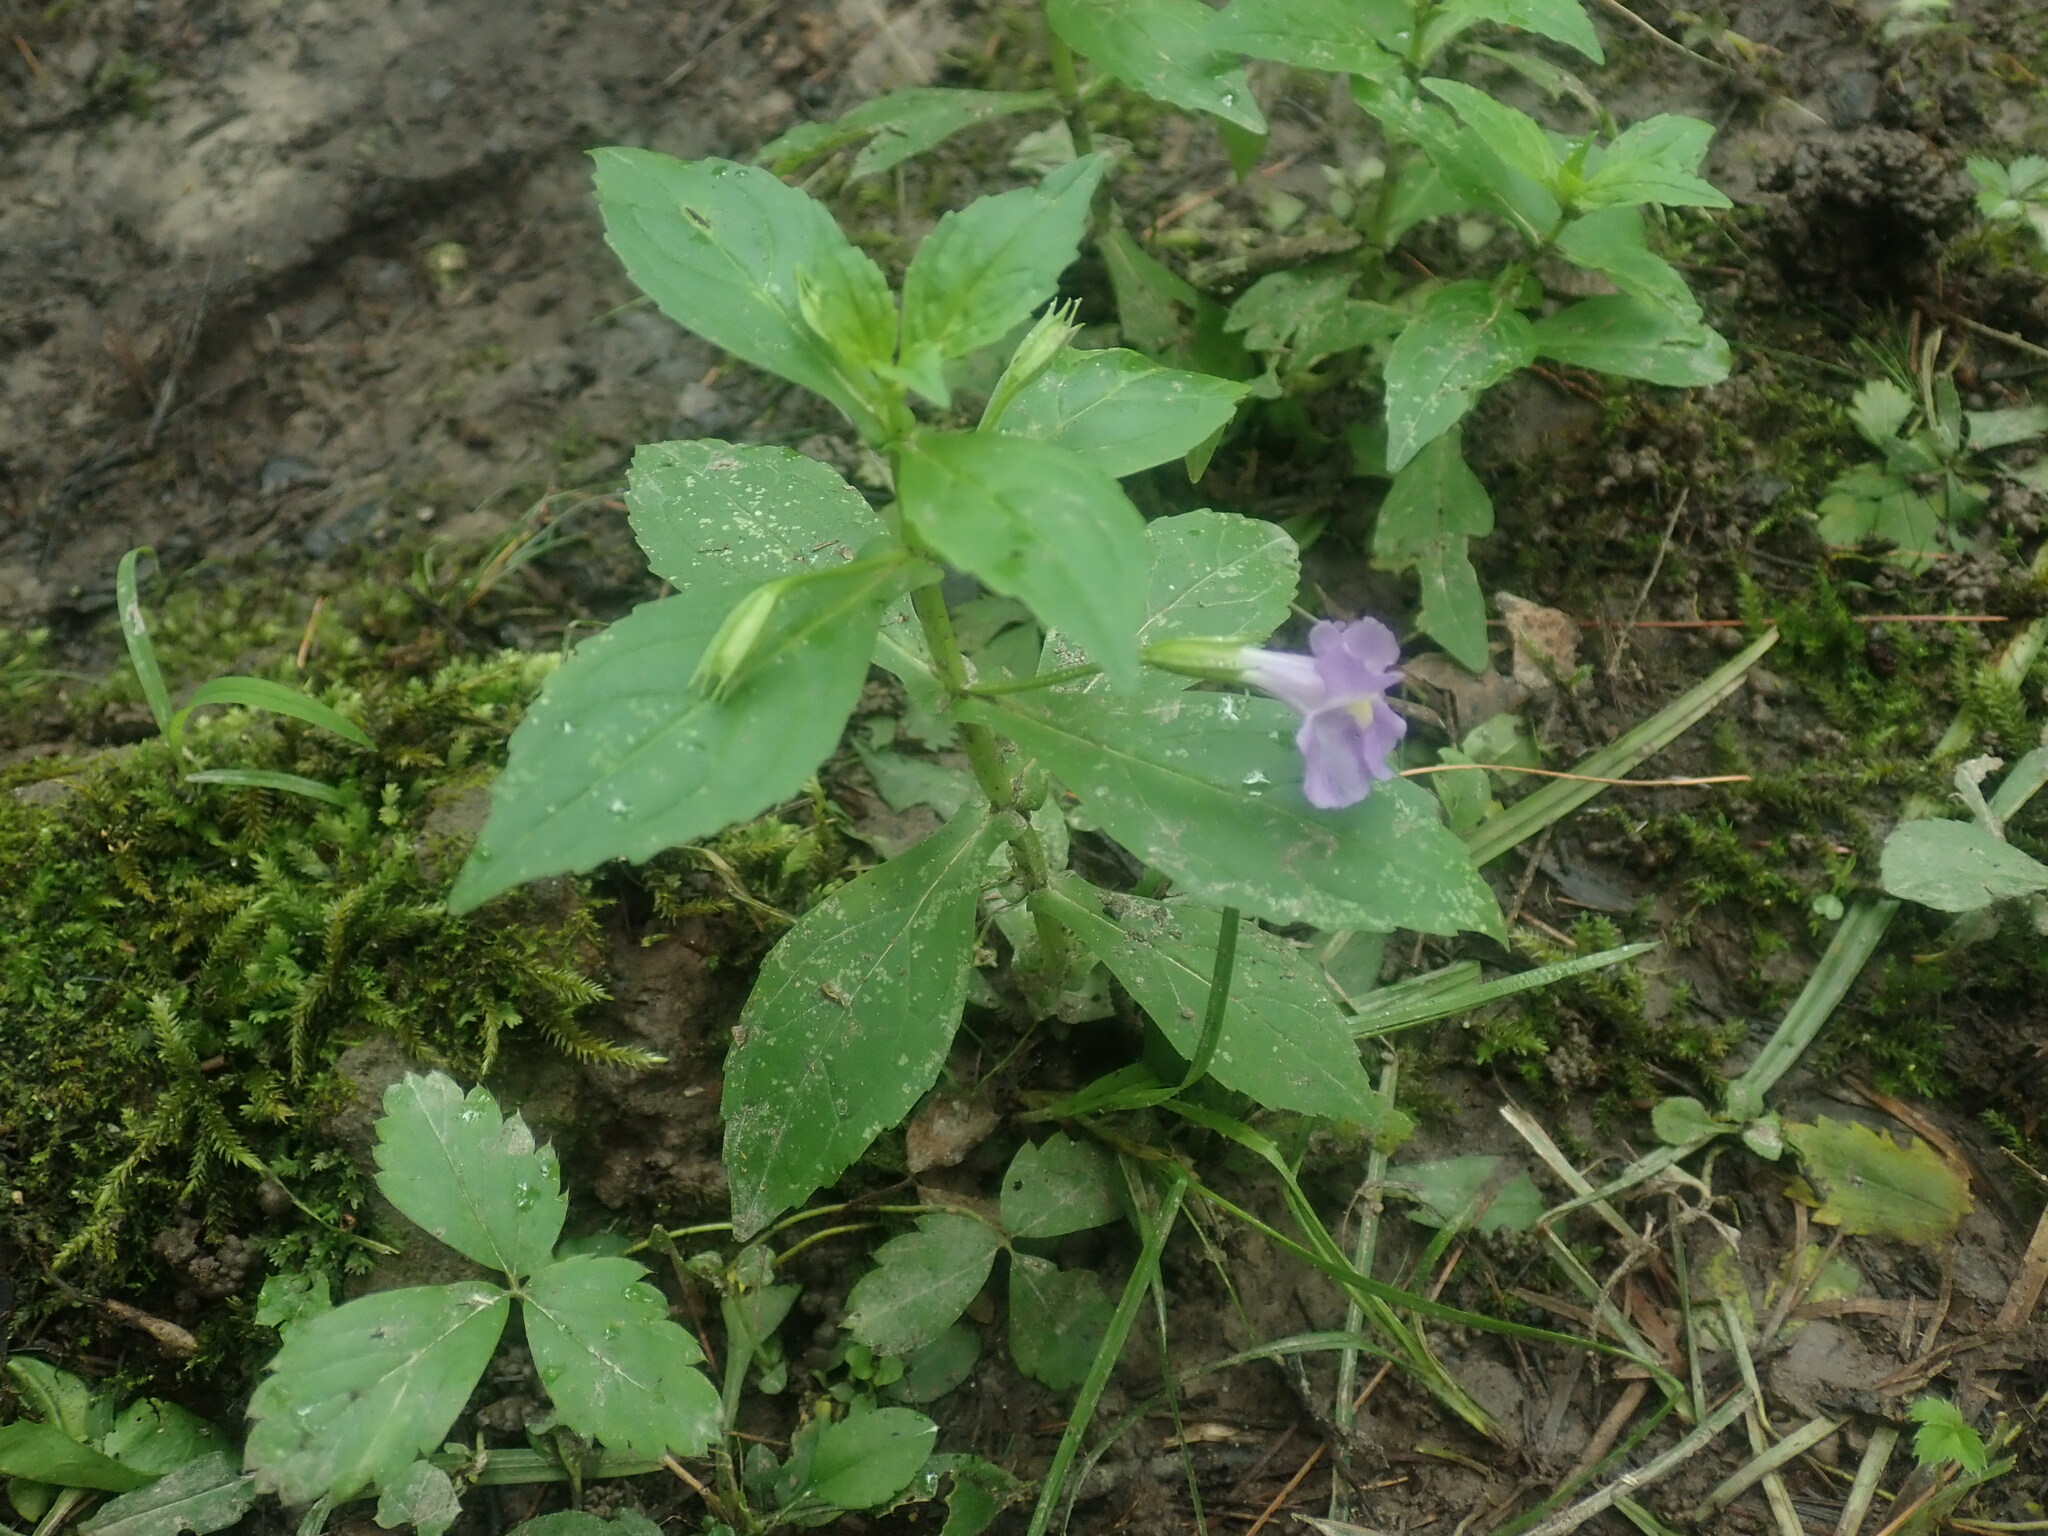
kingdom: Plantae
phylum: Tracheophyta
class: Magnoliopsida
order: Lamiales
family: Phrymaceae
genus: Mimulus
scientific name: Mimulus ringens
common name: Allegheny monkeyflower
